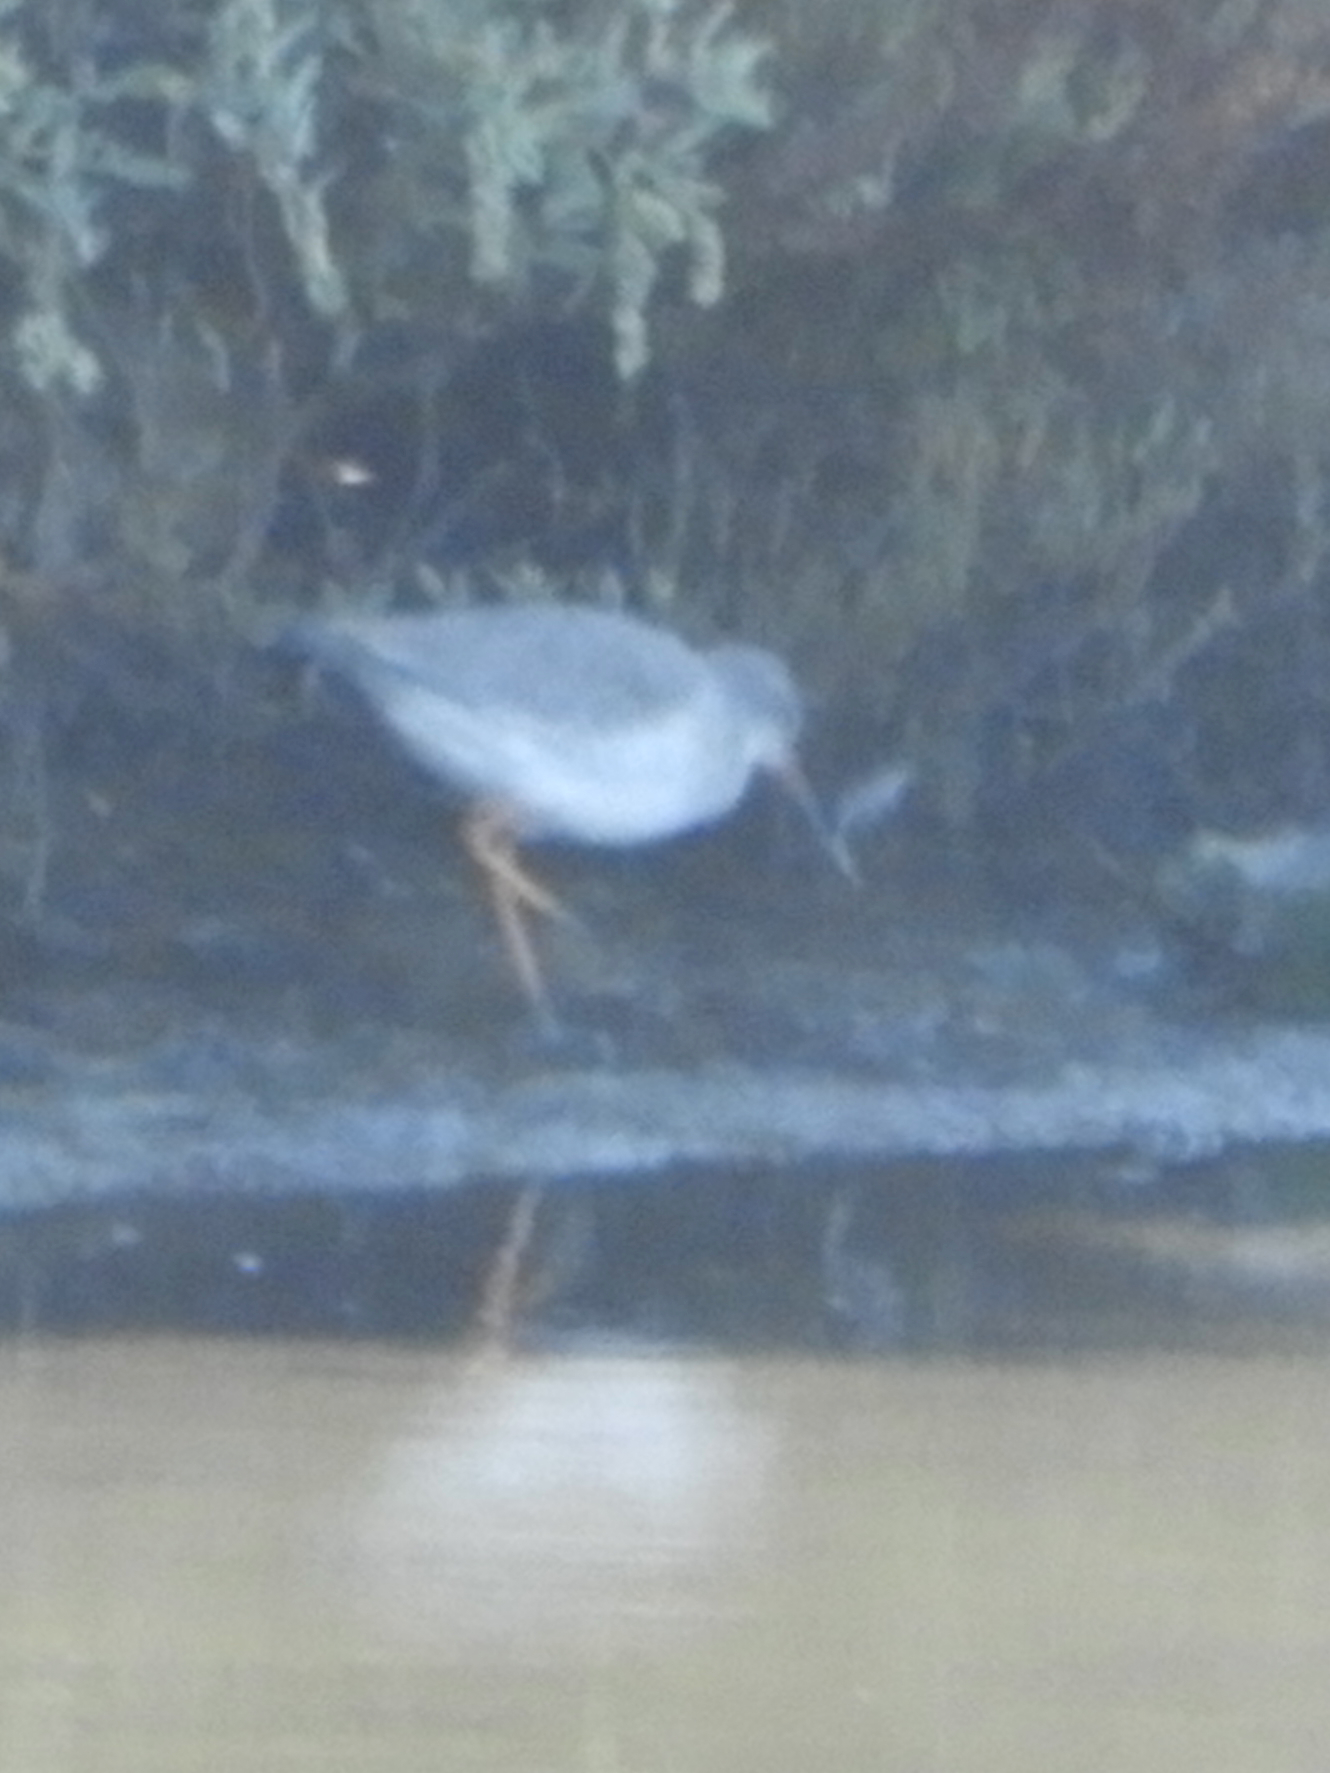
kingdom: Animalia
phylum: Chordata
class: Aves
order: Charadriiformes
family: Scolopacidae
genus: Tringa
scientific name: Tringa erythropus
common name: Spotted redshank
